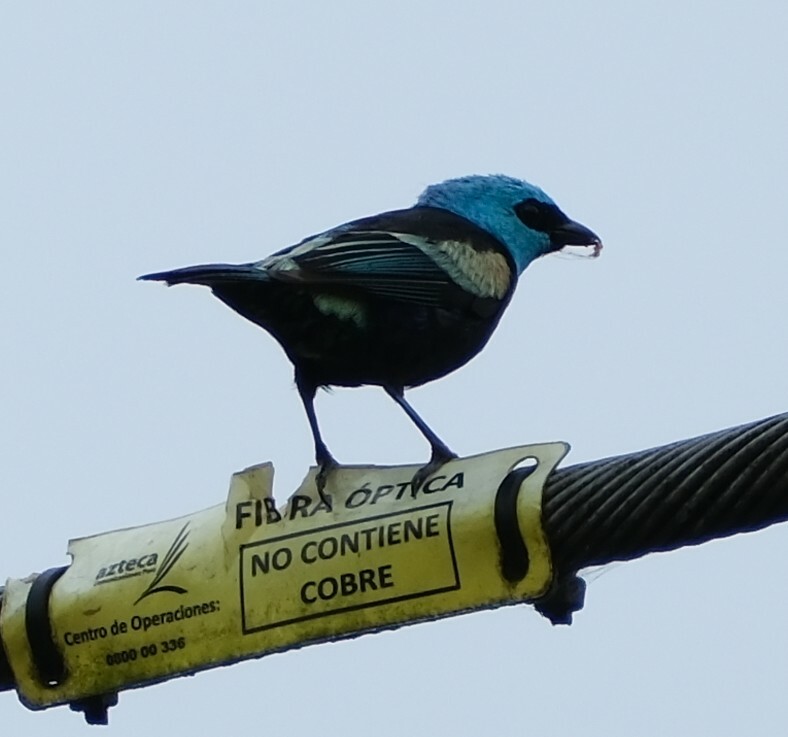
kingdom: Animalia
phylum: Chordata
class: Aves
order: Passeriformes
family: Thraupidae
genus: Stilpnia
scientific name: Stilpnia cyanicollis
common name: Blue-necked tanager
